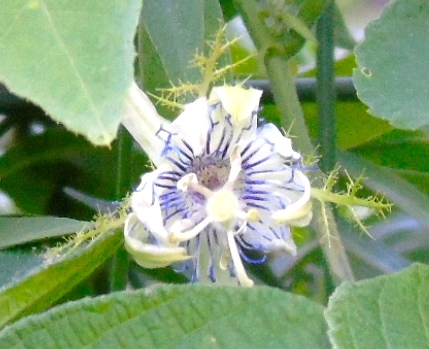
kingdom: Plantae
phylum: Tracheophyta
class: Magnoliopsida
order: Malpighiales
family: Passifloraceae
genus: Passiflora
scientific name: Passiflora foetida
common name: Fetid passionflower
